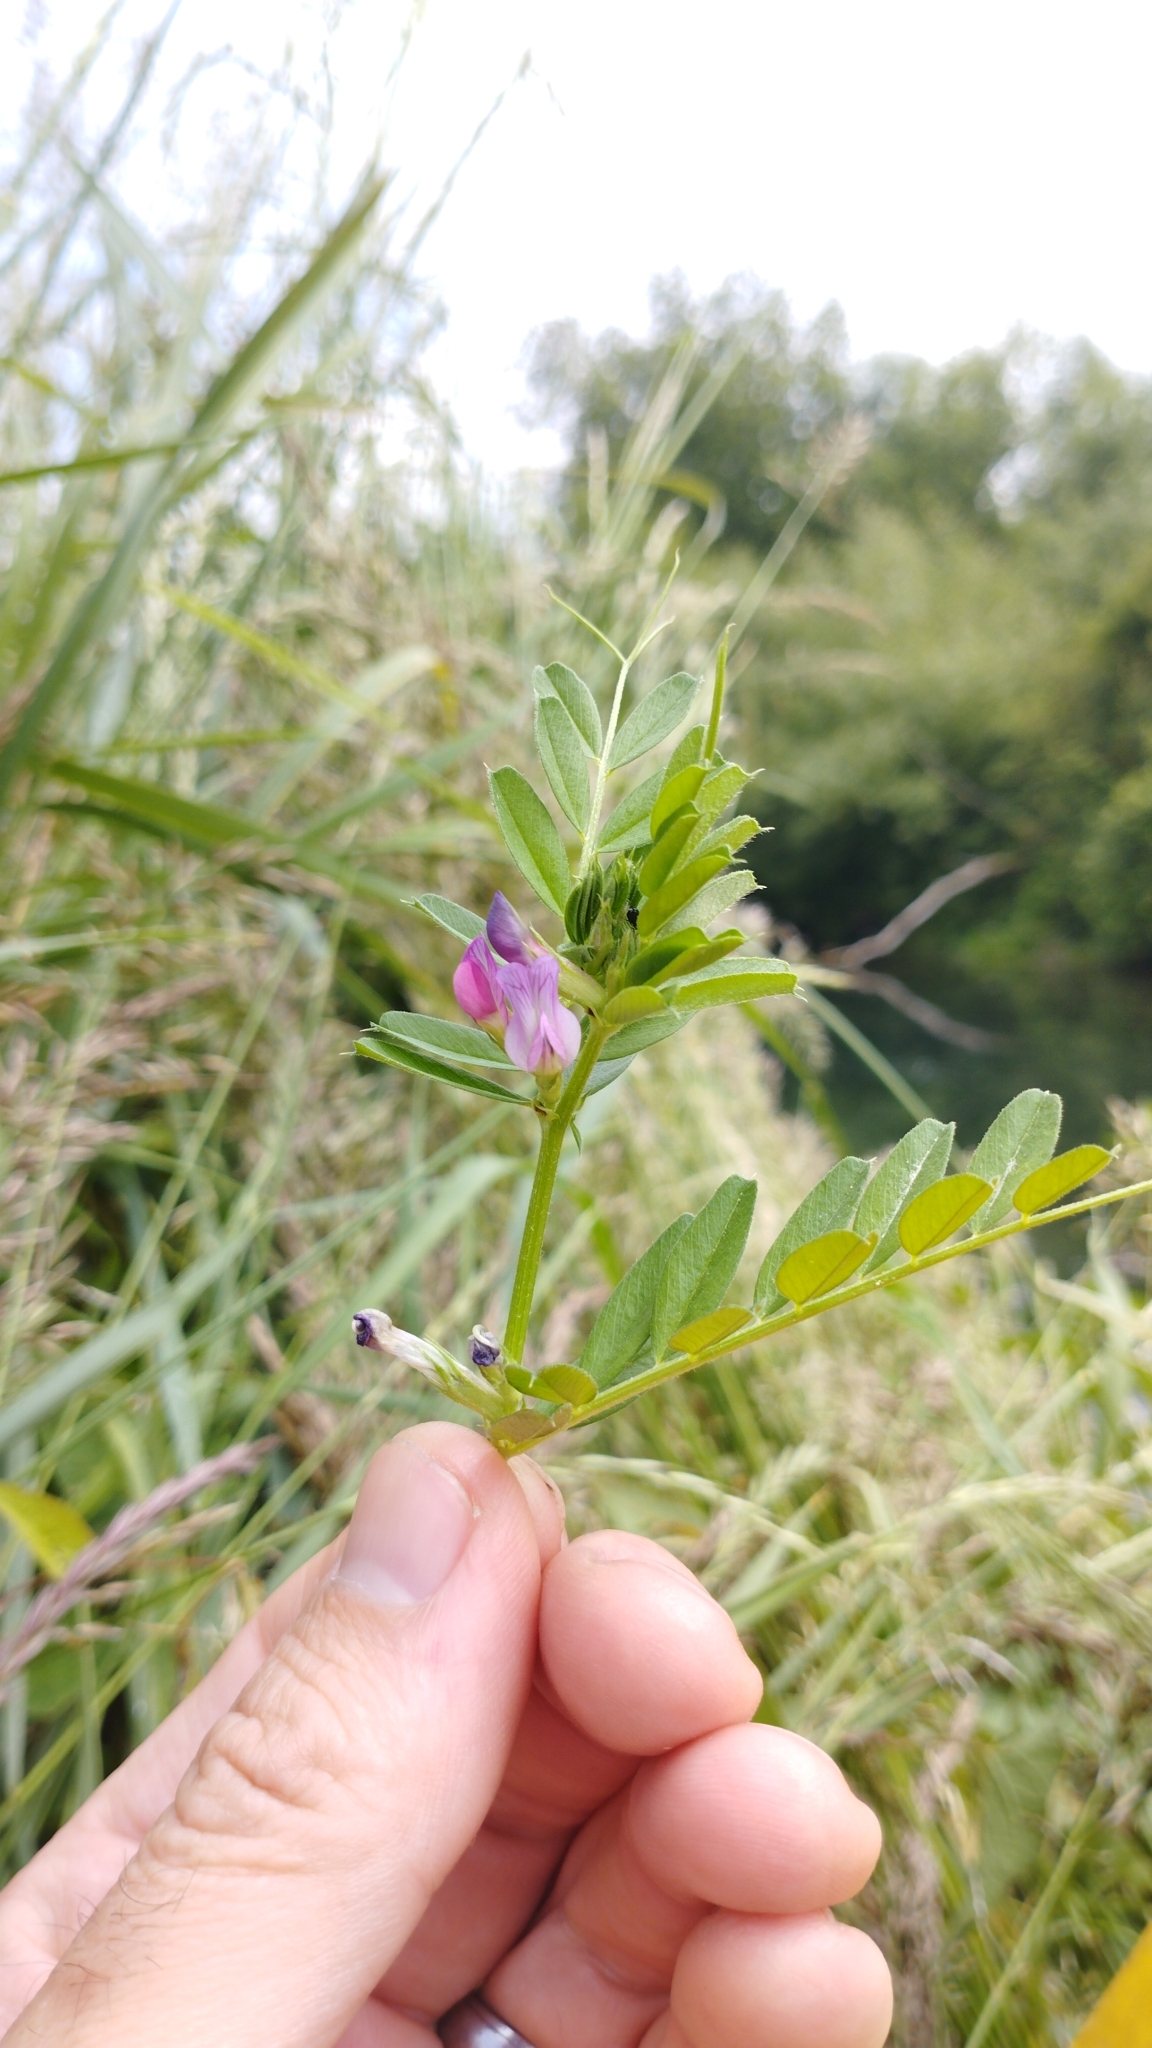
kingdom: Plantae
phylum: Tracheophyta
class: Magnoliopsida
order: Fabales
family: Fabaceae
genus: Vicia
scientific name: Vicia sativa
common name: Garden vetch
